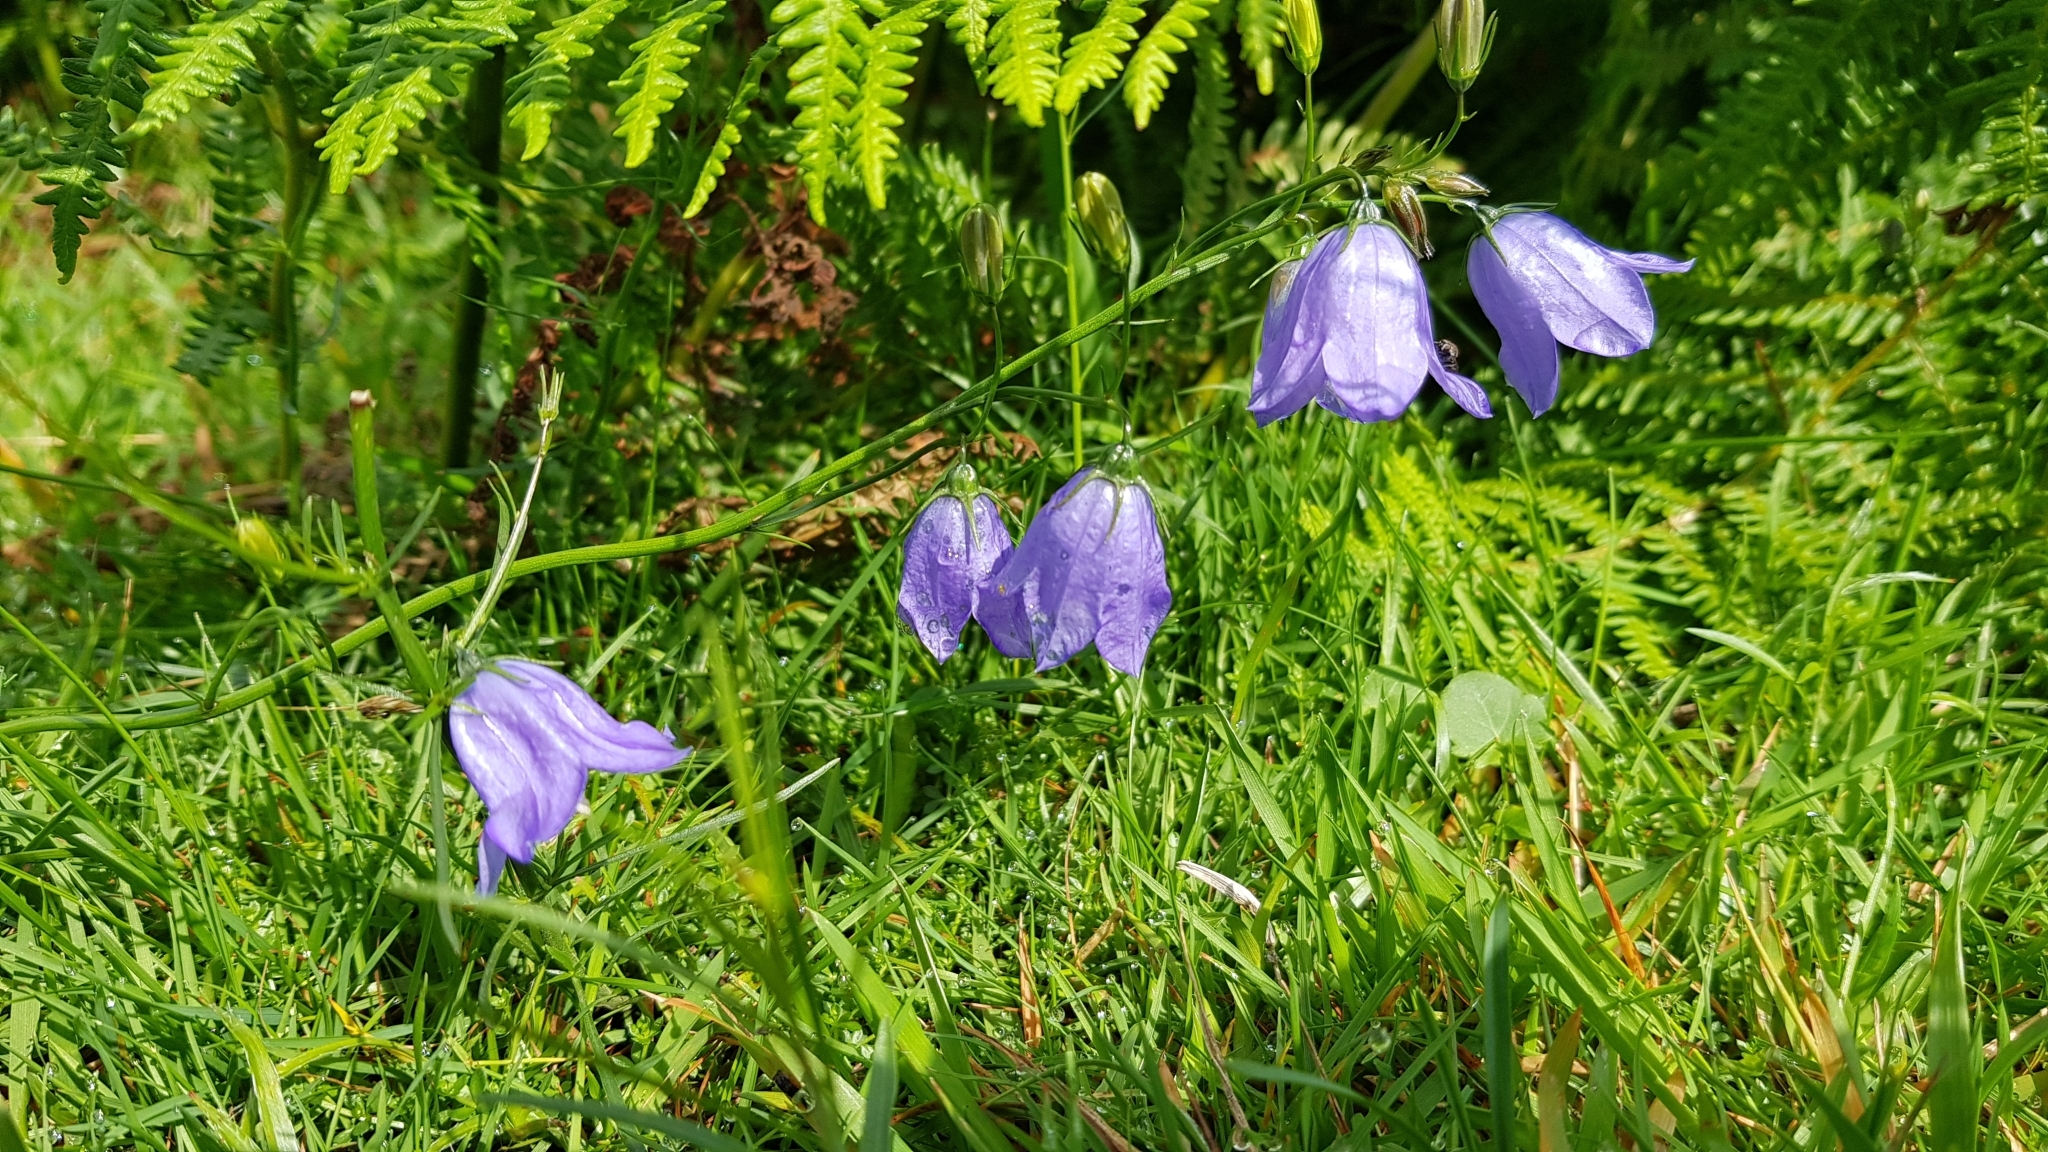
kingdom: Plantae
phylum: Tracheophyta
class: Magnoliopsida
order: Asterales
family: Campanulaceae
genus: Campanula
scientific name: Campanula rotundifolia
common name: Harebell
